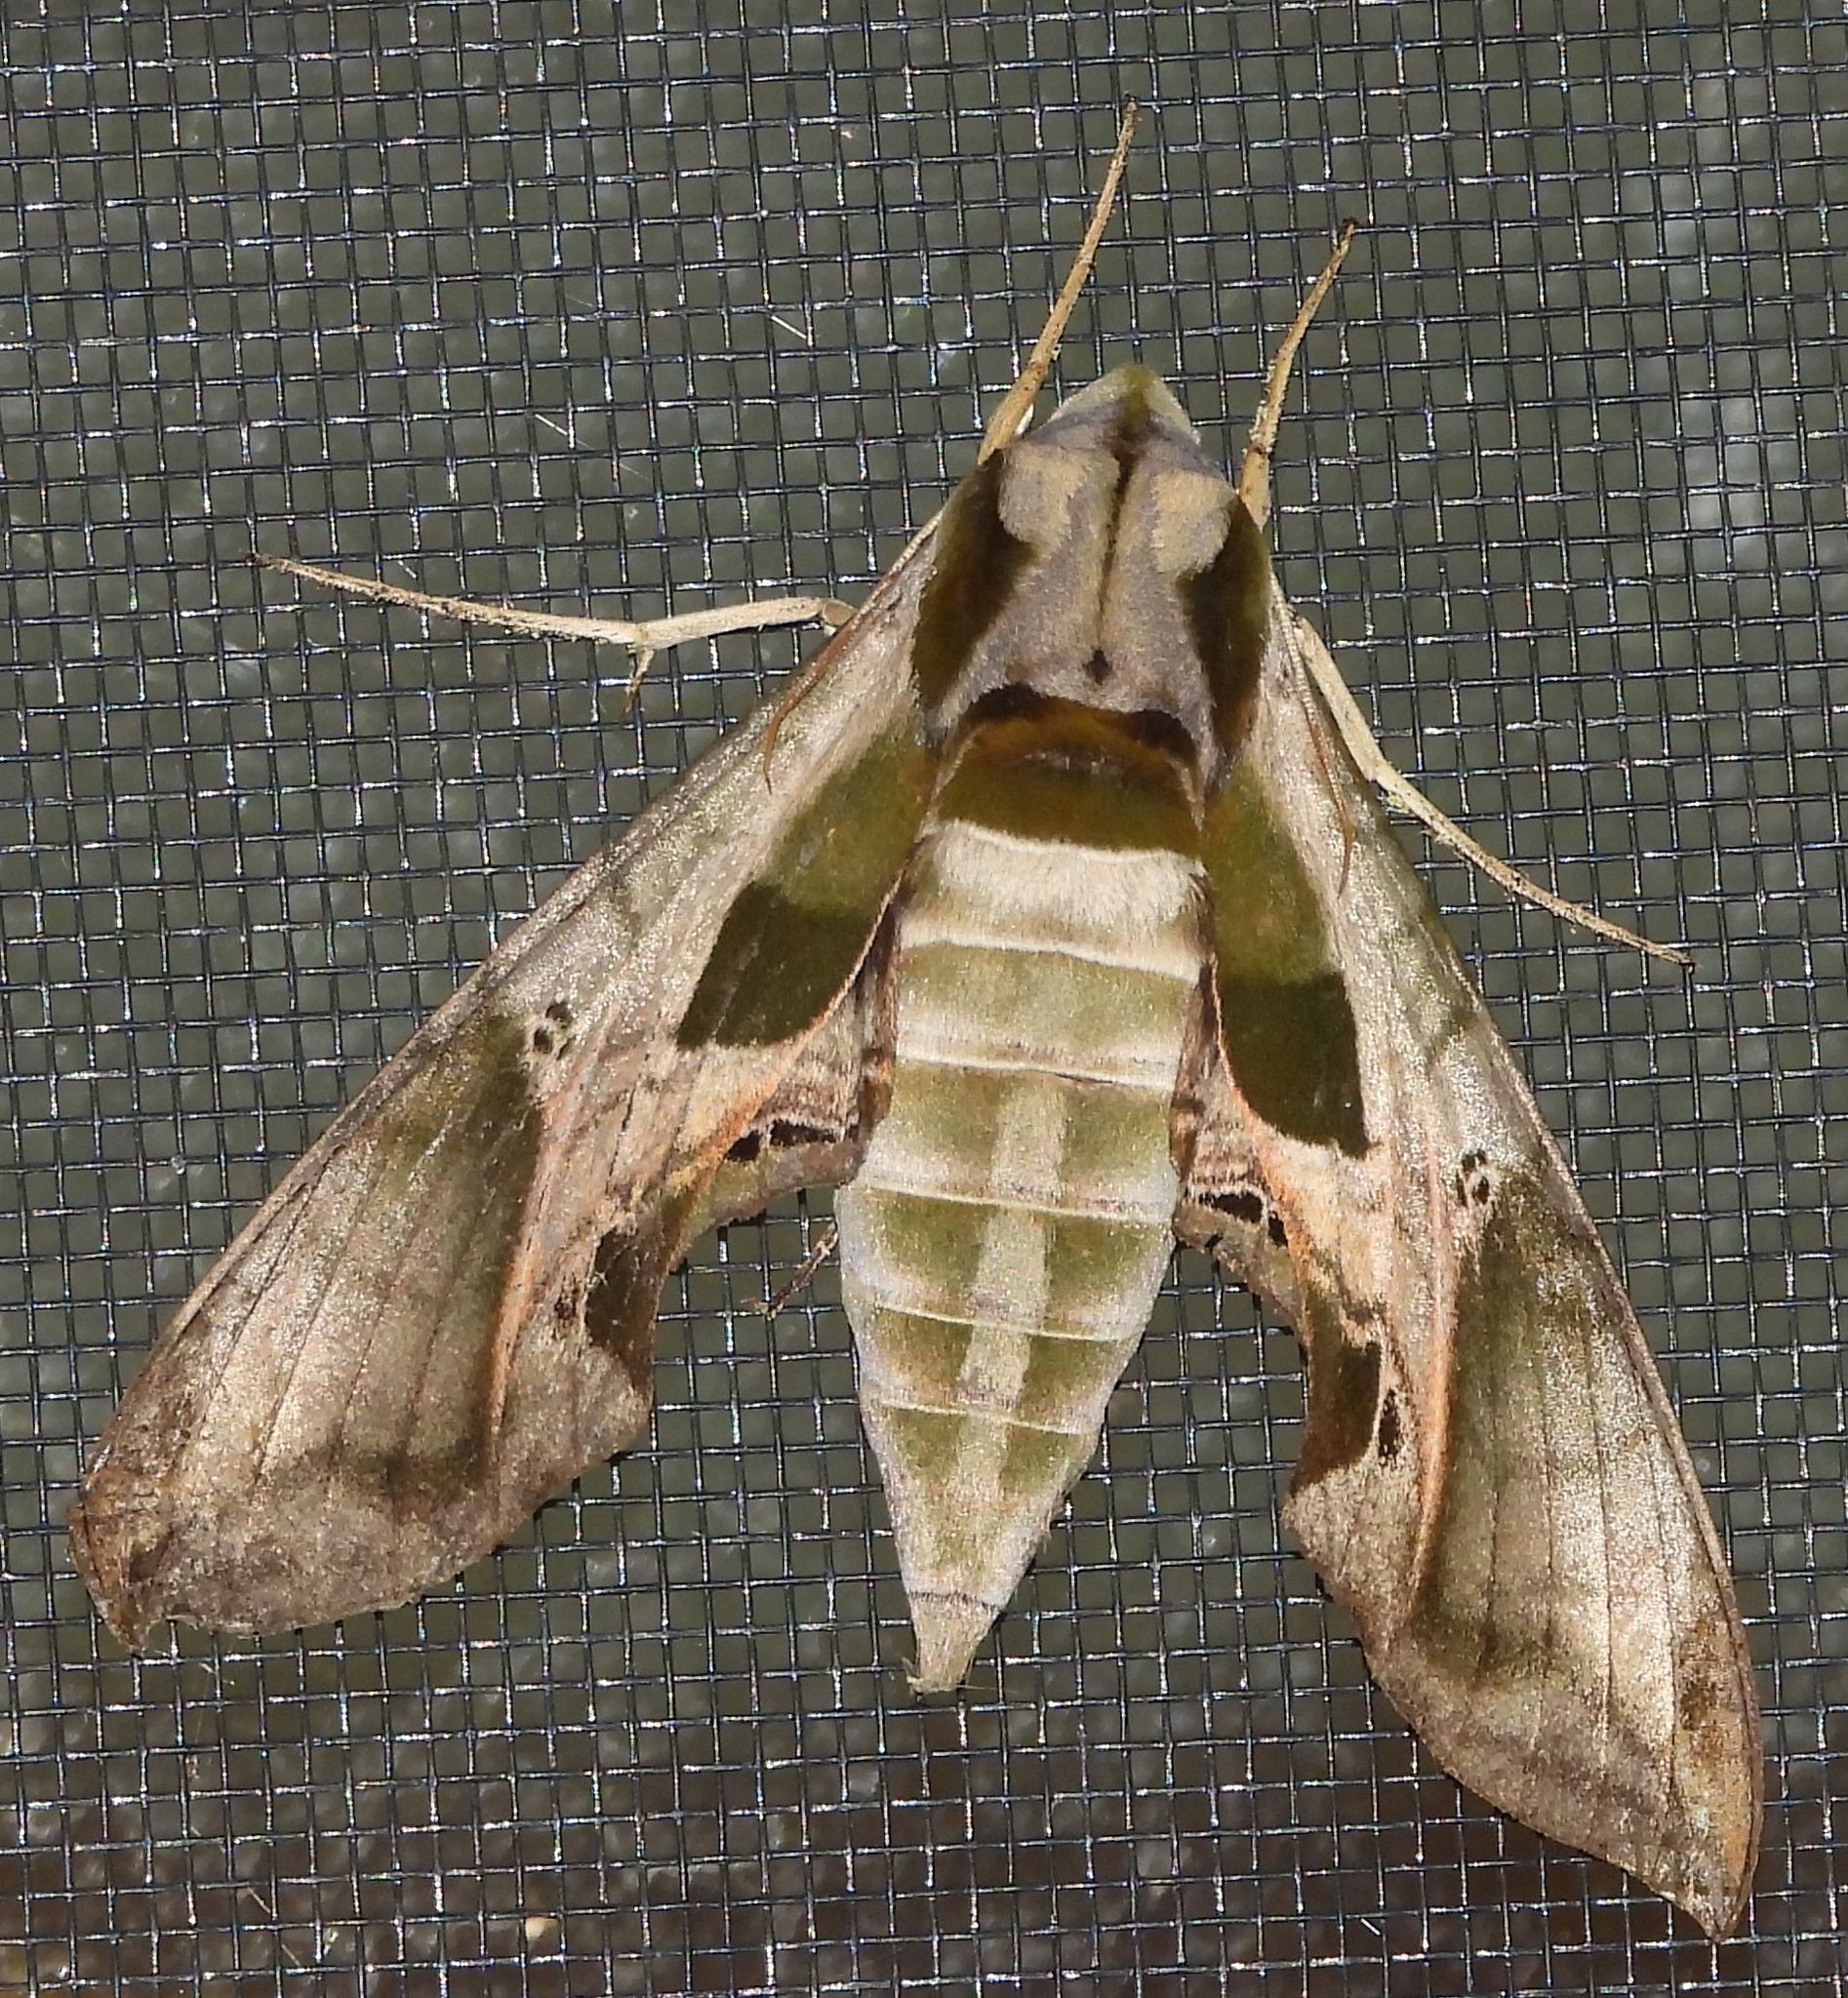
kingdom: Animalia
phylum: Arthropoda
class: Insecta
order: Lepidoptera
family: Sphingidae
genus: Eumorpha
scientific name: Eumorpha pandorus
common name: Pandora sphinx
